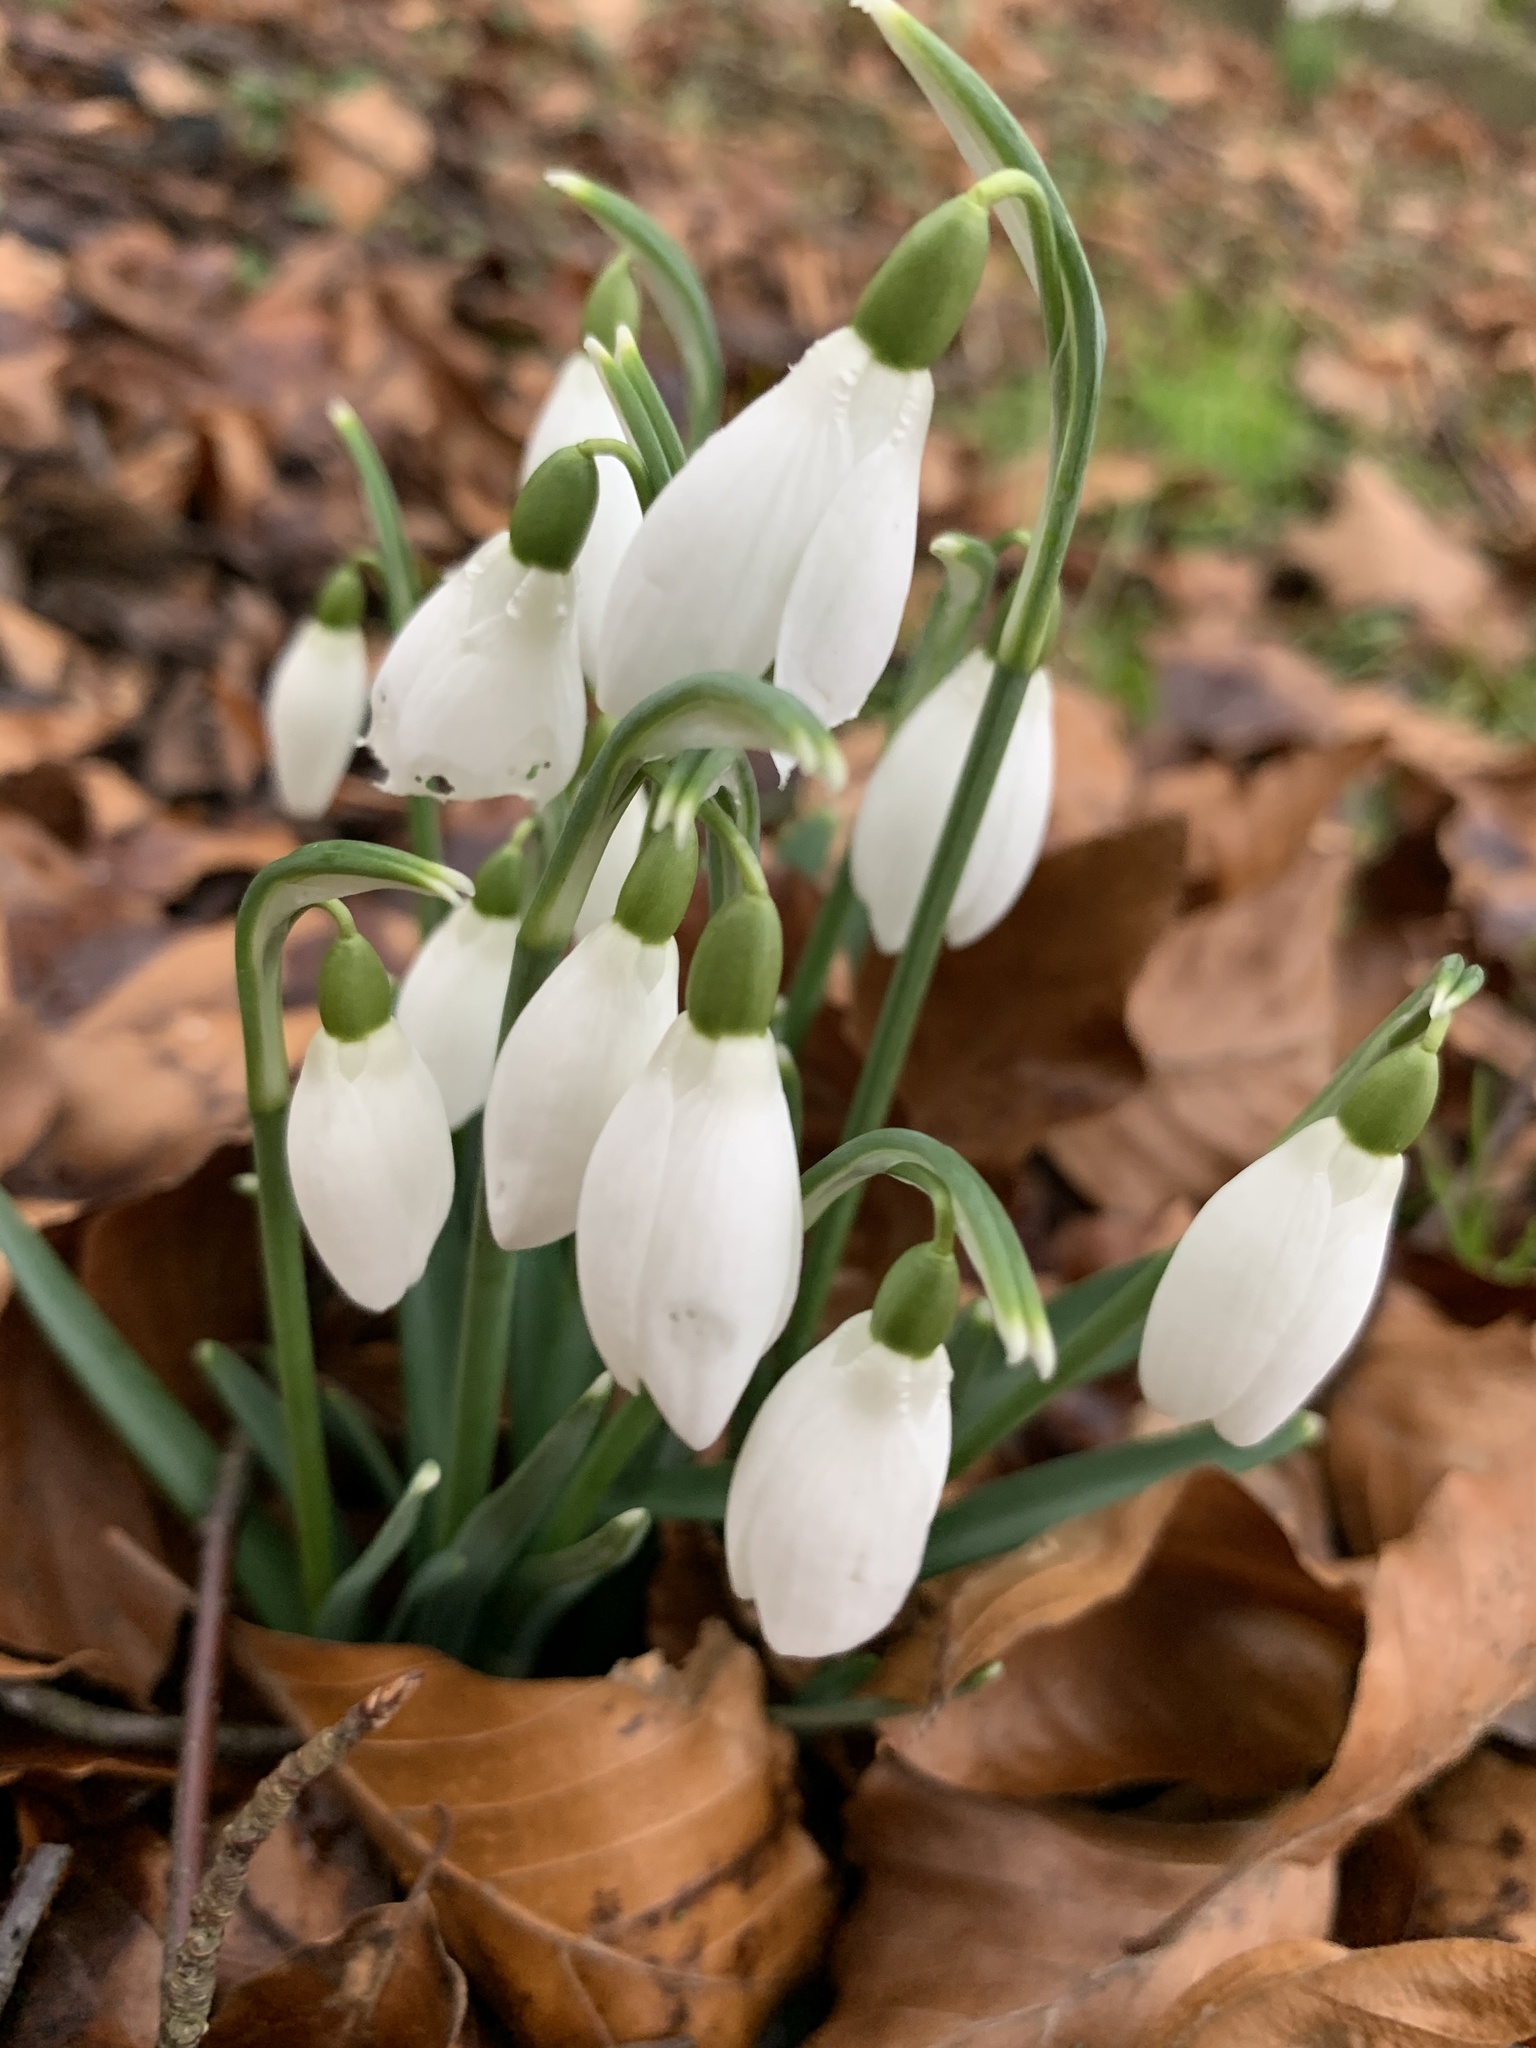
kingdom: Plantae
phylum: Tracheophyta
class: Liliopsida
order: Asparagales
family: Amaryllidaceae
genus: Galanthus
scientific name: Galanthus nivalis
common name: Snowdrop
